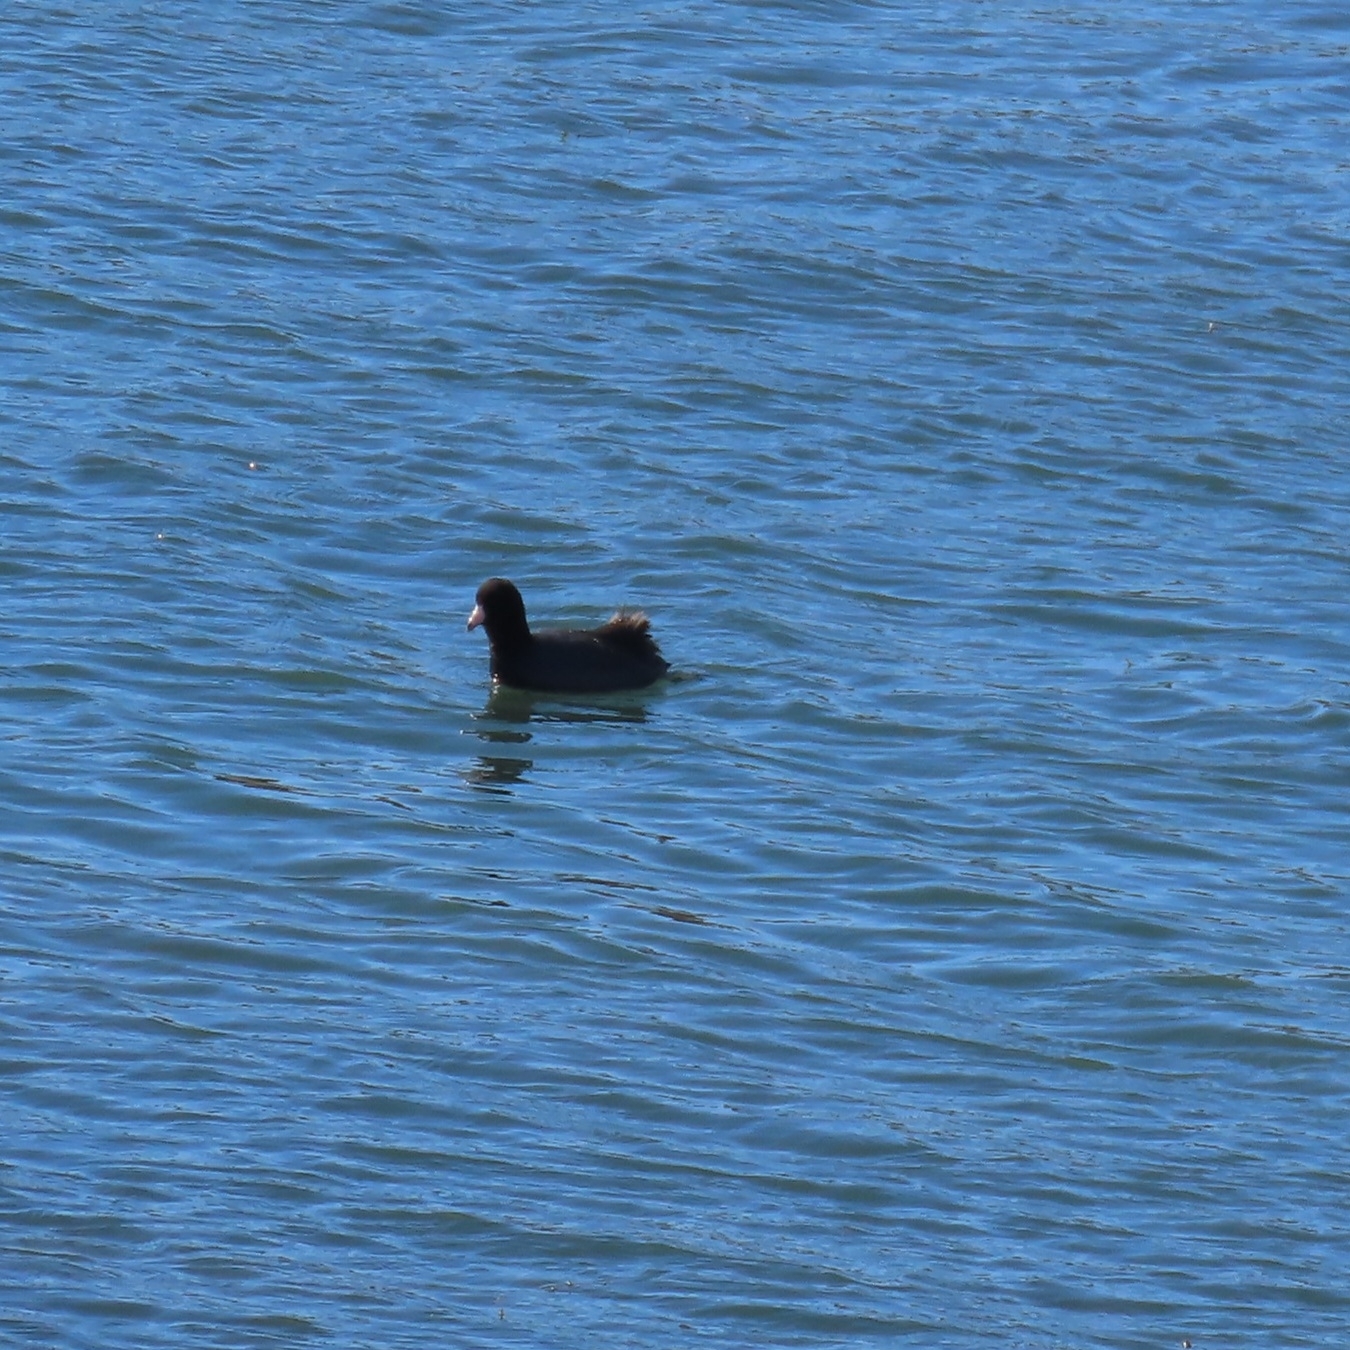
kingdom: Animalia
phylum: Chordata
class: Aves
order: Gruiformes
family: Rallidae
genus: Fulica
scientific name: Fulica americana
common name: American coot
